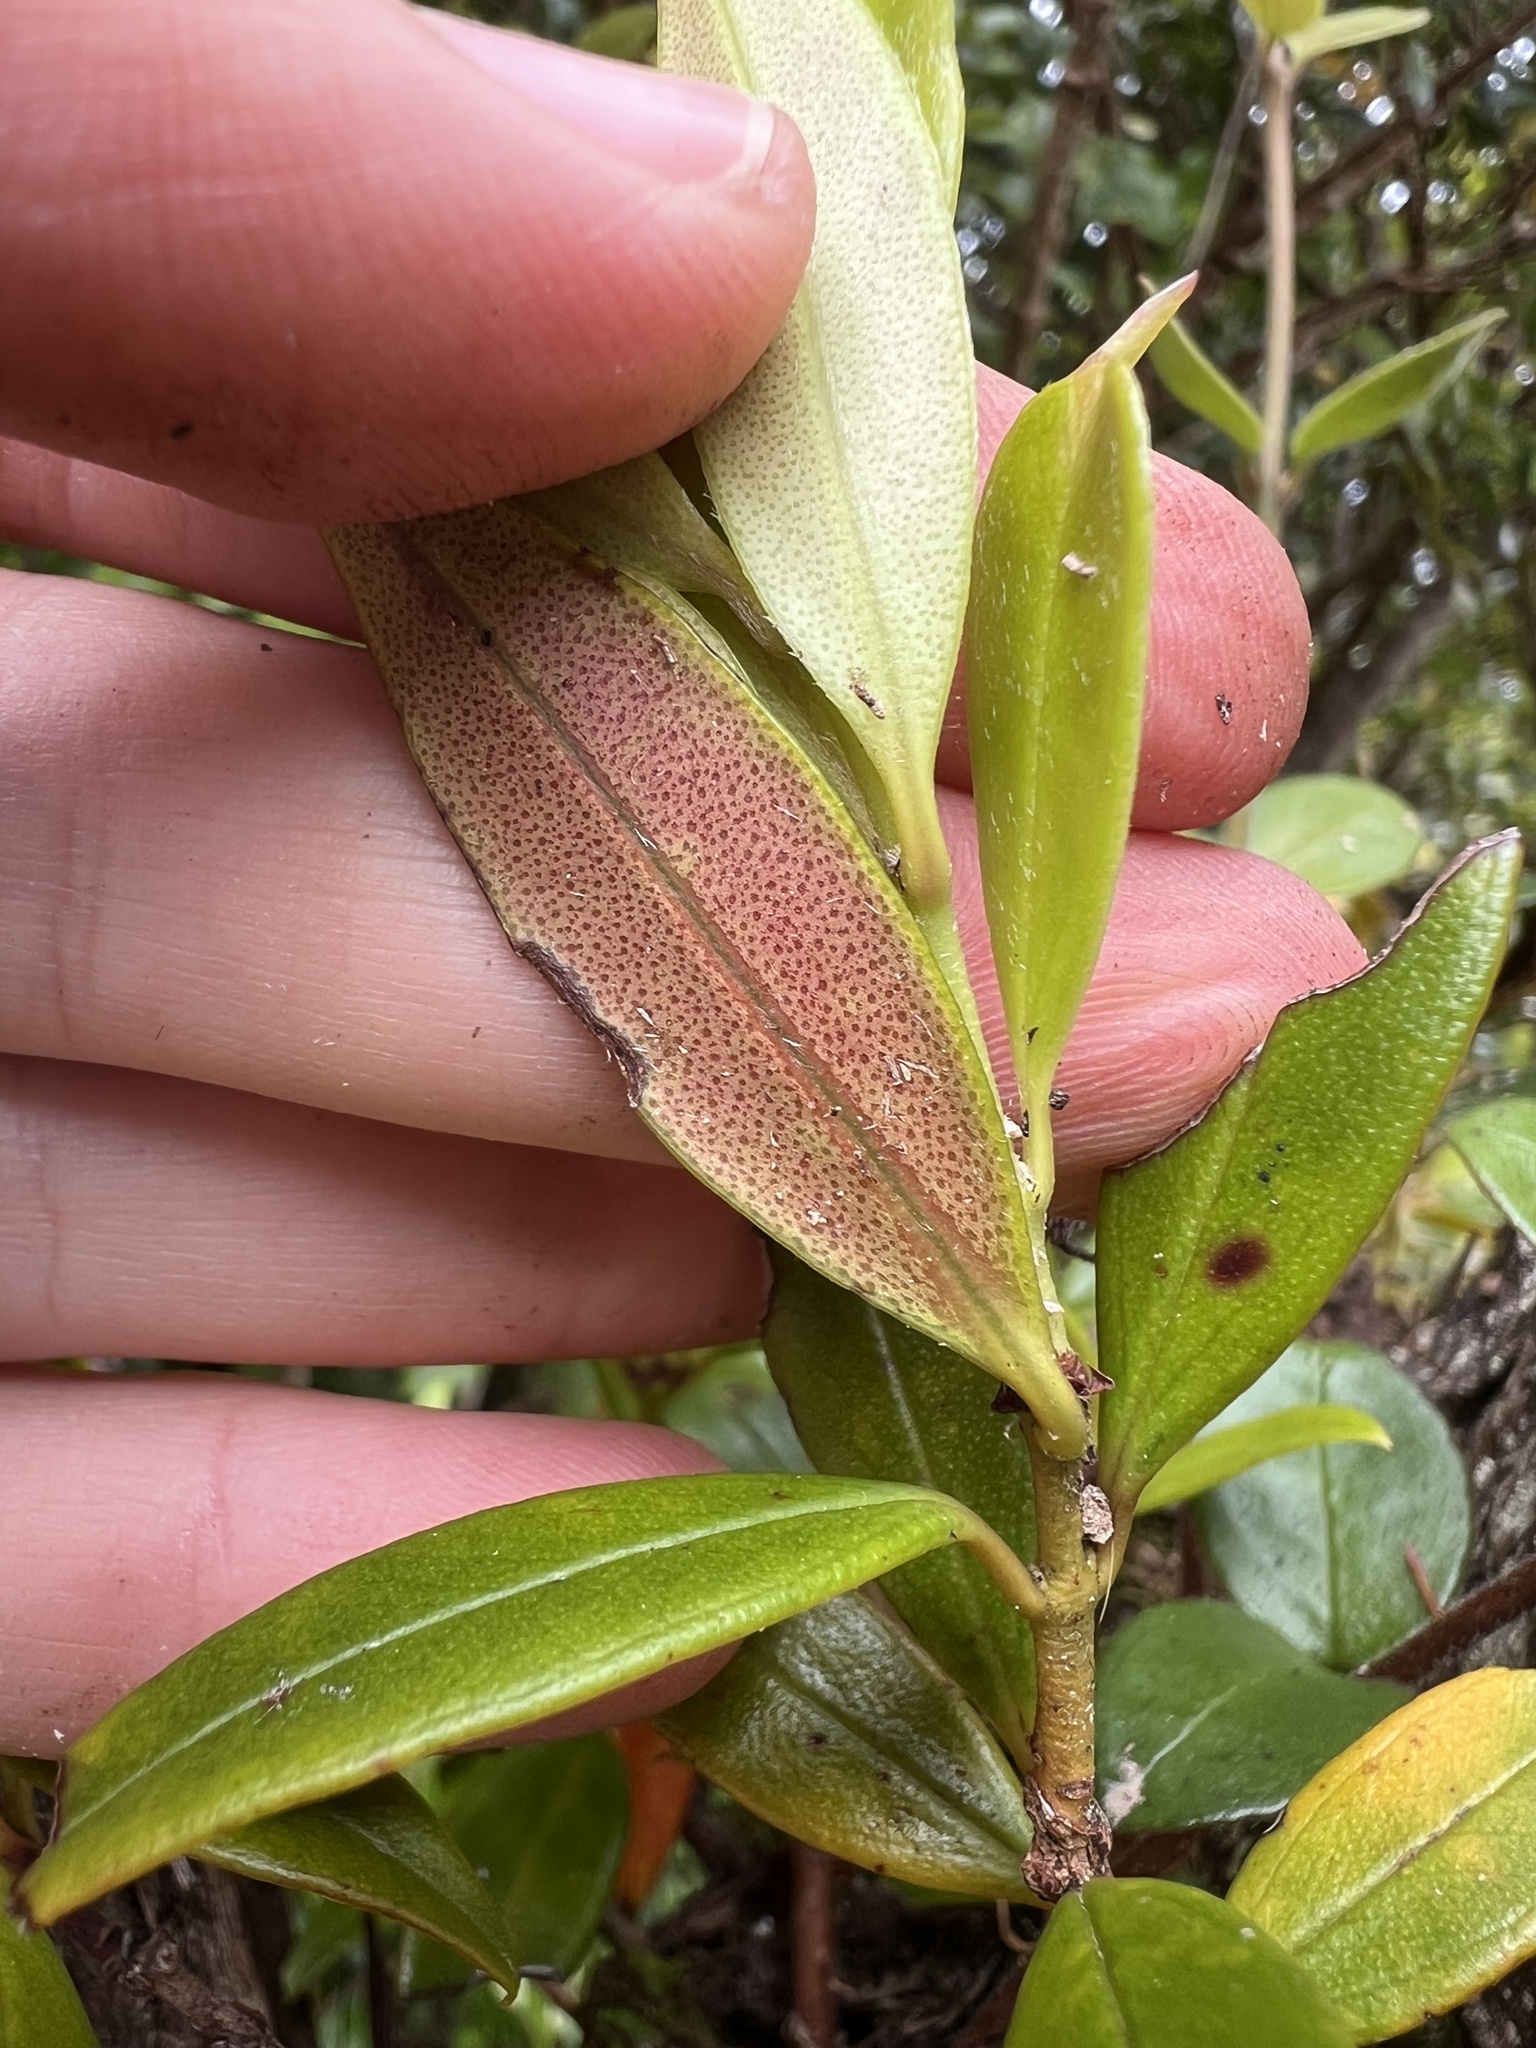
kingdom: Plantae
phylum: Tracheophyta
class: Magnoliopsida
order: Myrtales
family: Myrtaceae
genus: Metrosideros
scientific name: Metrosideros umbellata
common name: Southern rata
